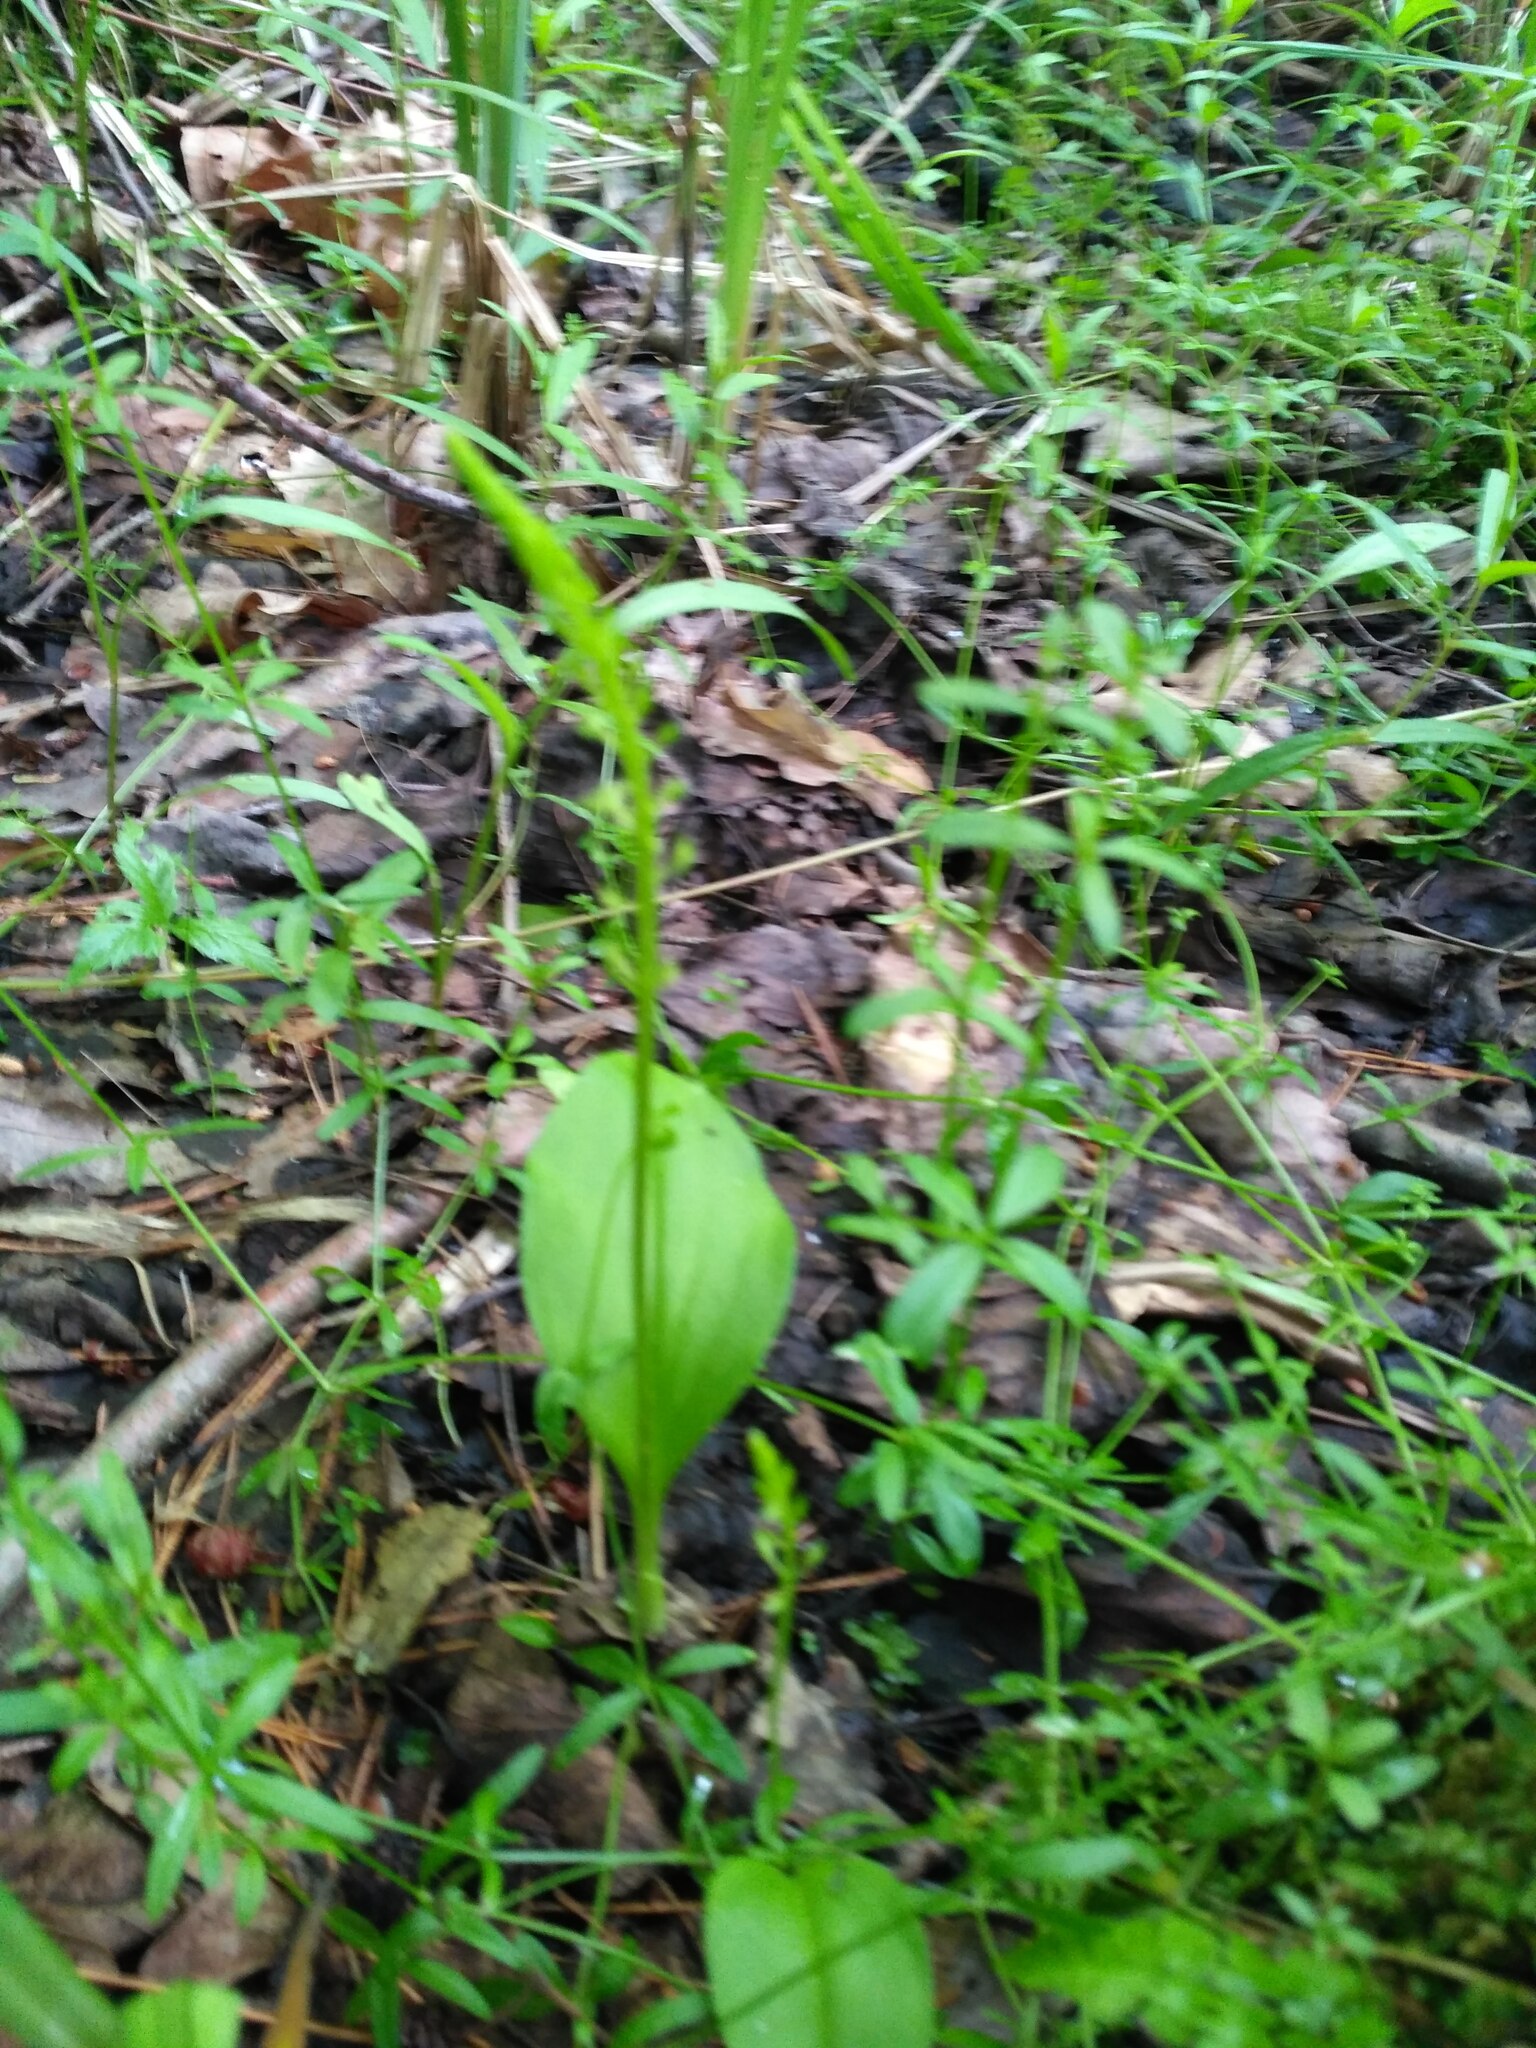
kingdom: Plantae
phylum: Tracheophyta
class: Liliopsida
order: Asparagales
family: Orchidaceae
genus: Malaxis
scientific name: Malaxis monophyllos
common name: White adder's-mouth
